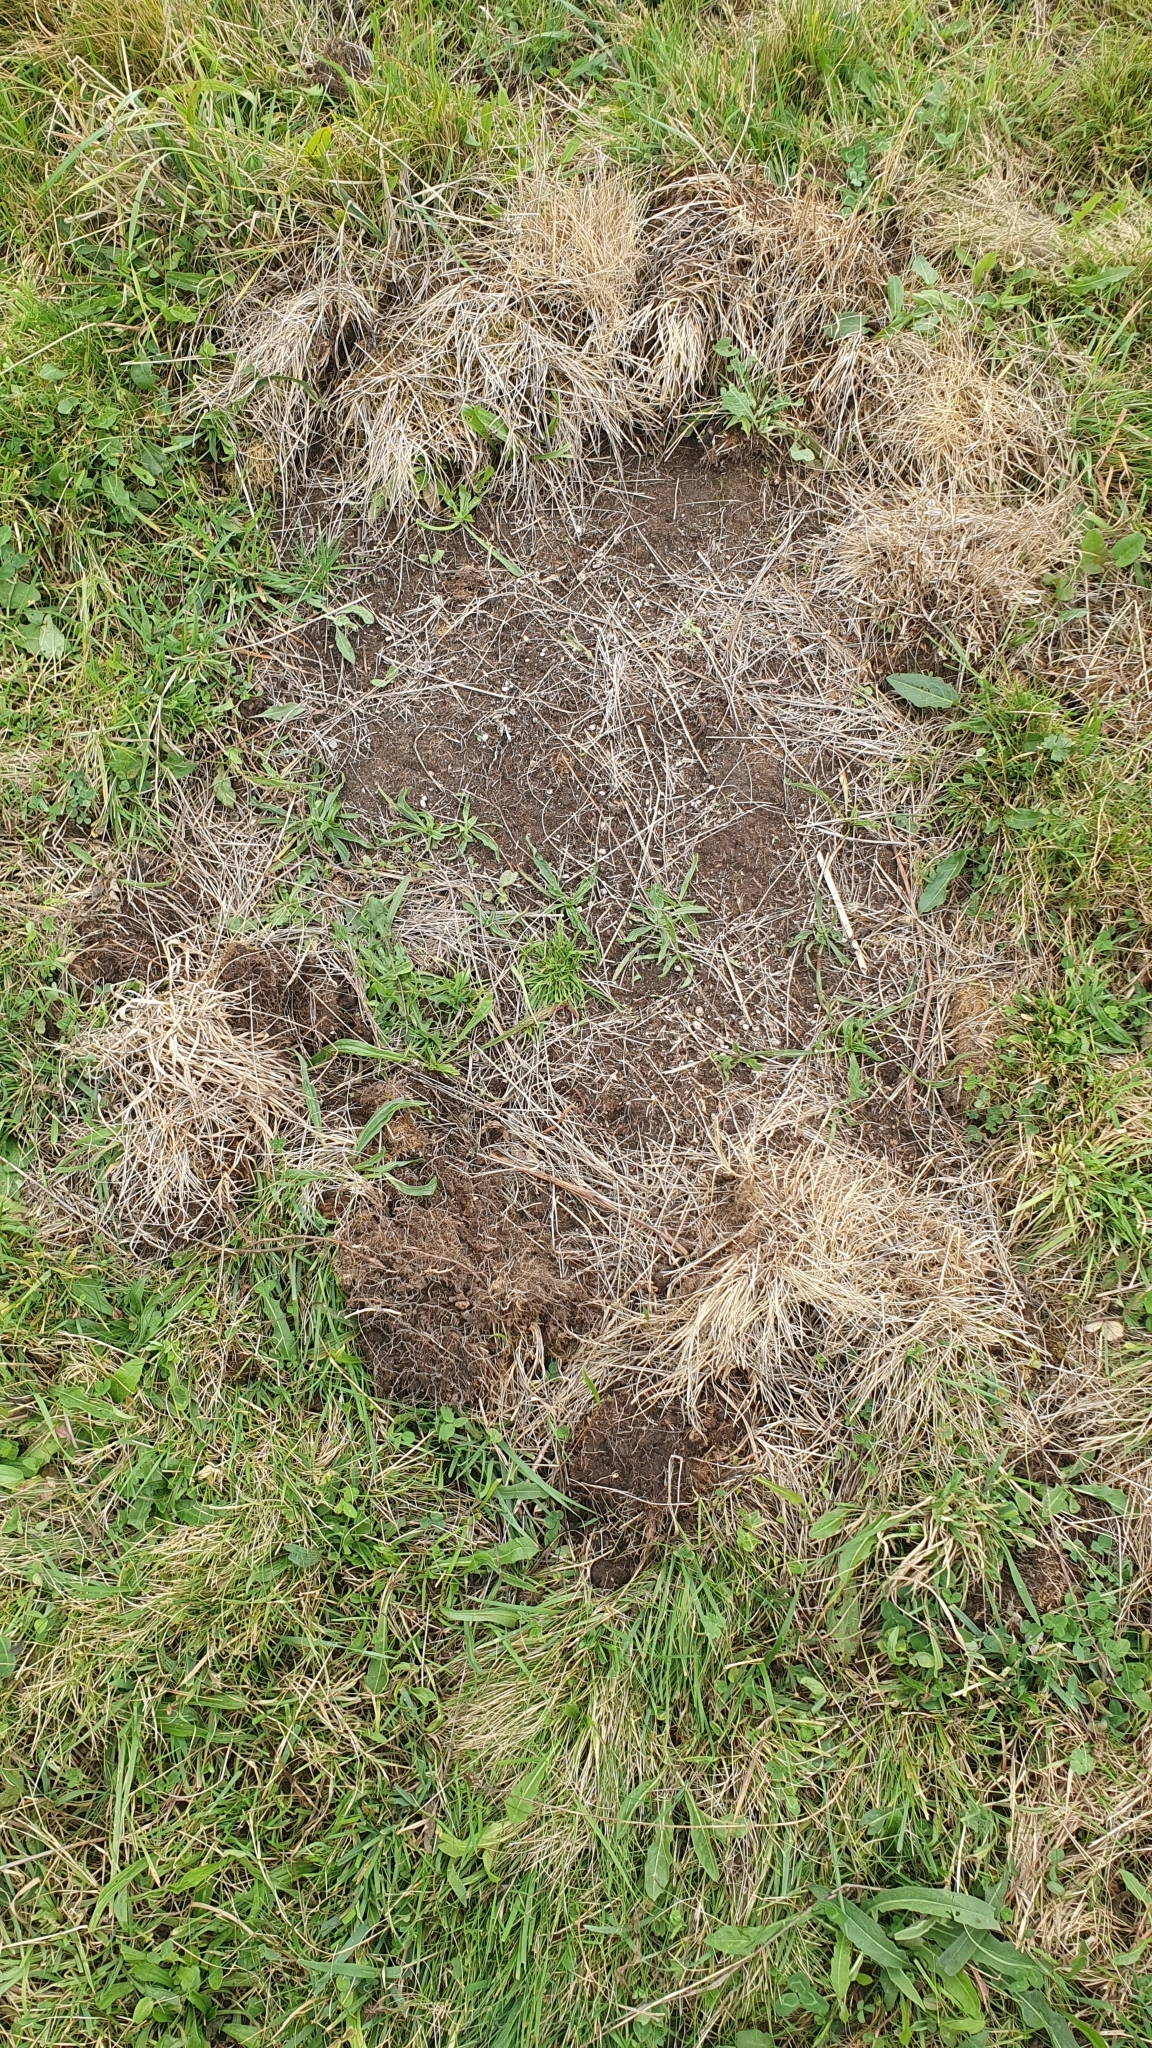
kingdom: Animalia
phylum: Chordata
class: Mammalia
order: Artiodactyla
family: Suidae
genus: Sus
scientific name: Sus scrofa
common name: Wild boar
